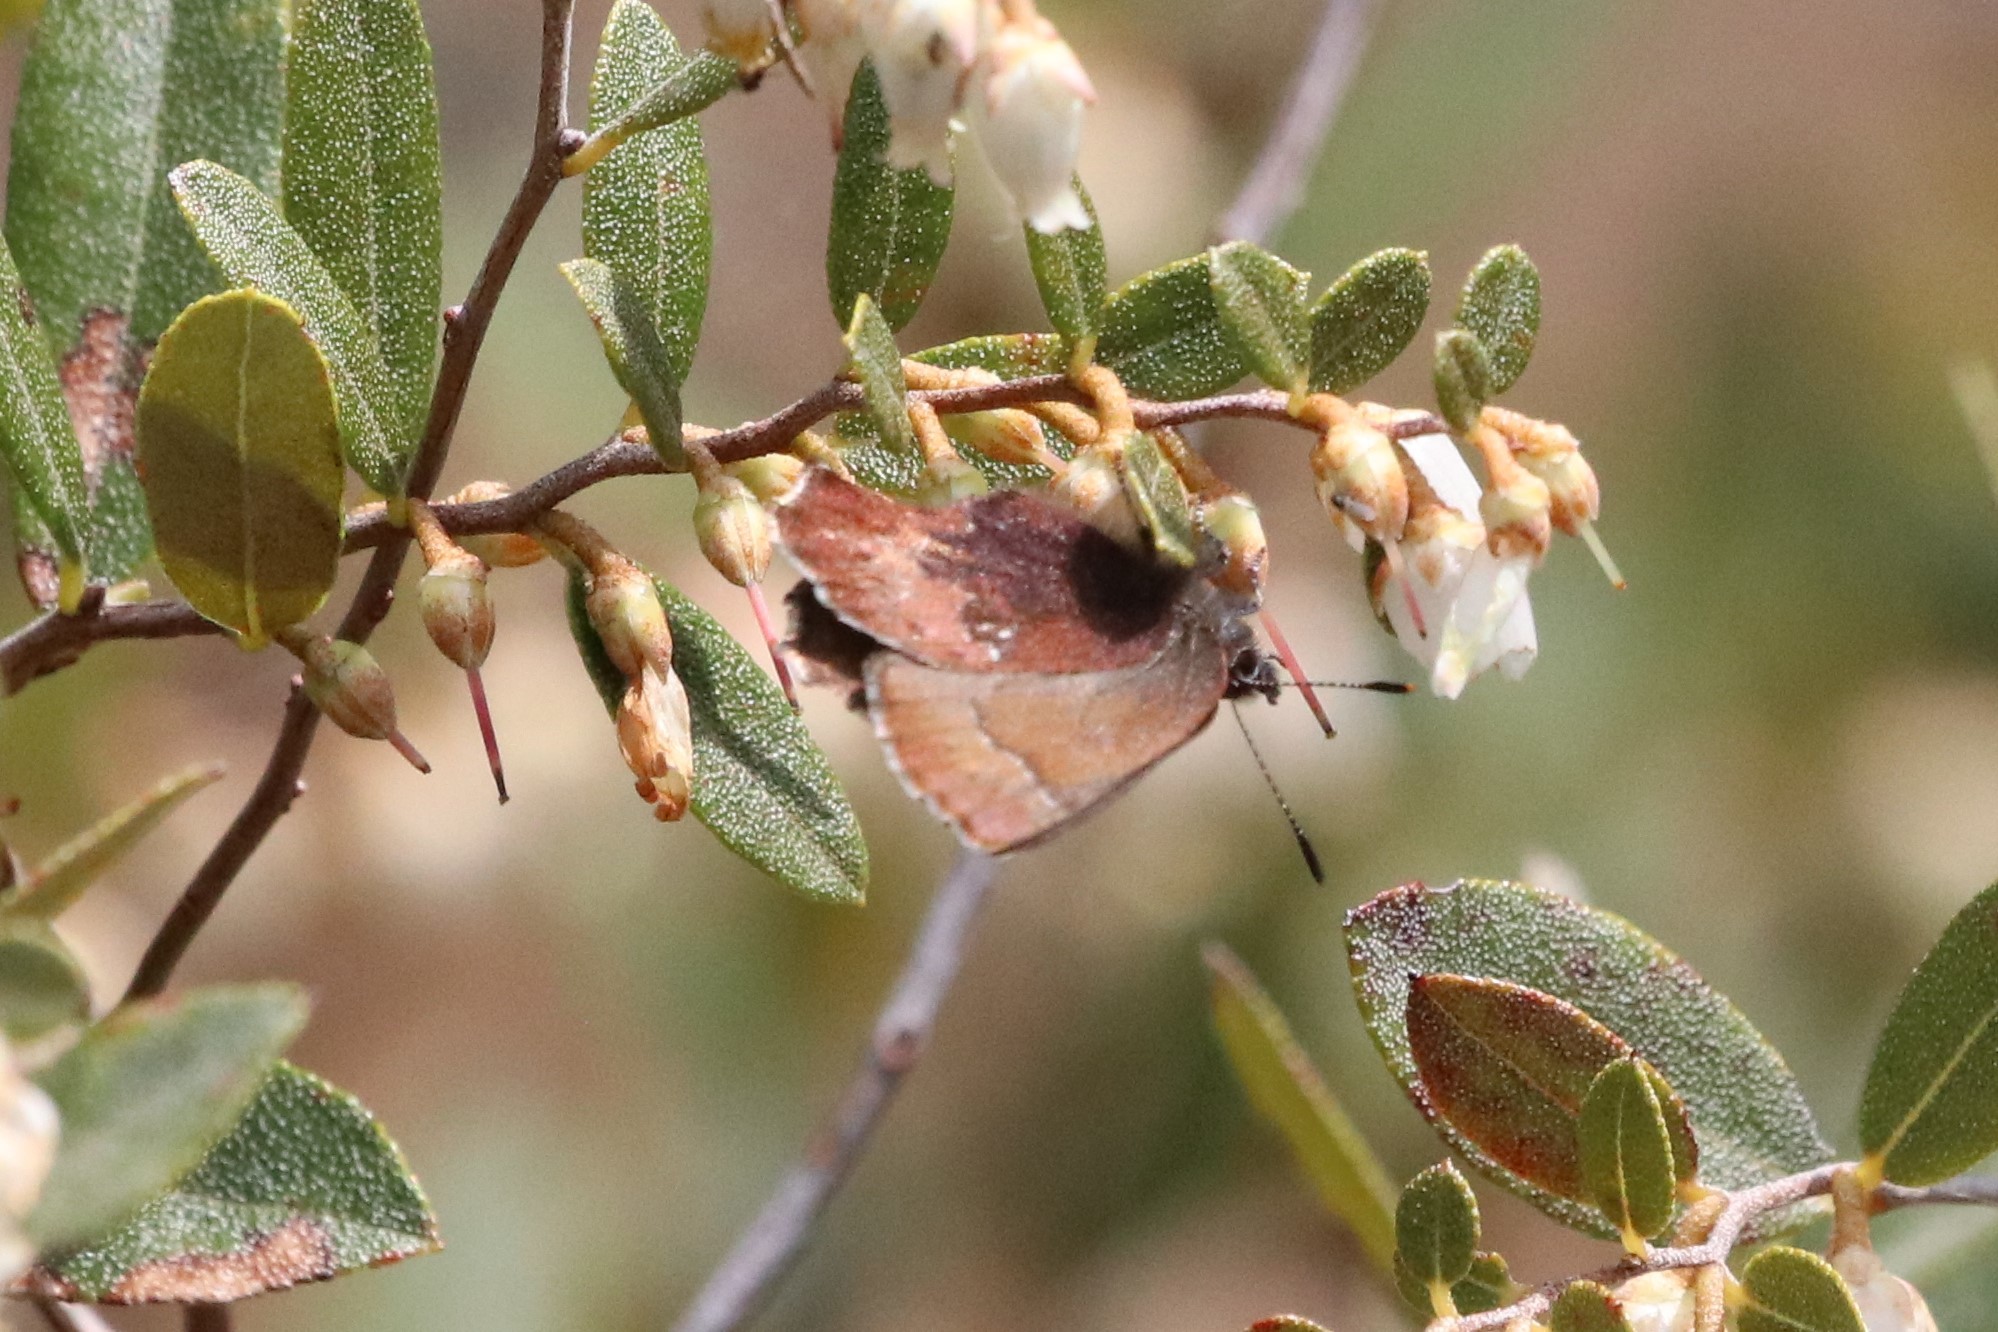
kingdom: Animalia
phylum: Arthropoda
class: Insecta
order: Lepidoptera
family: Lycaenidae
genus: Incisalia
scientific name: Incisalia irioides
